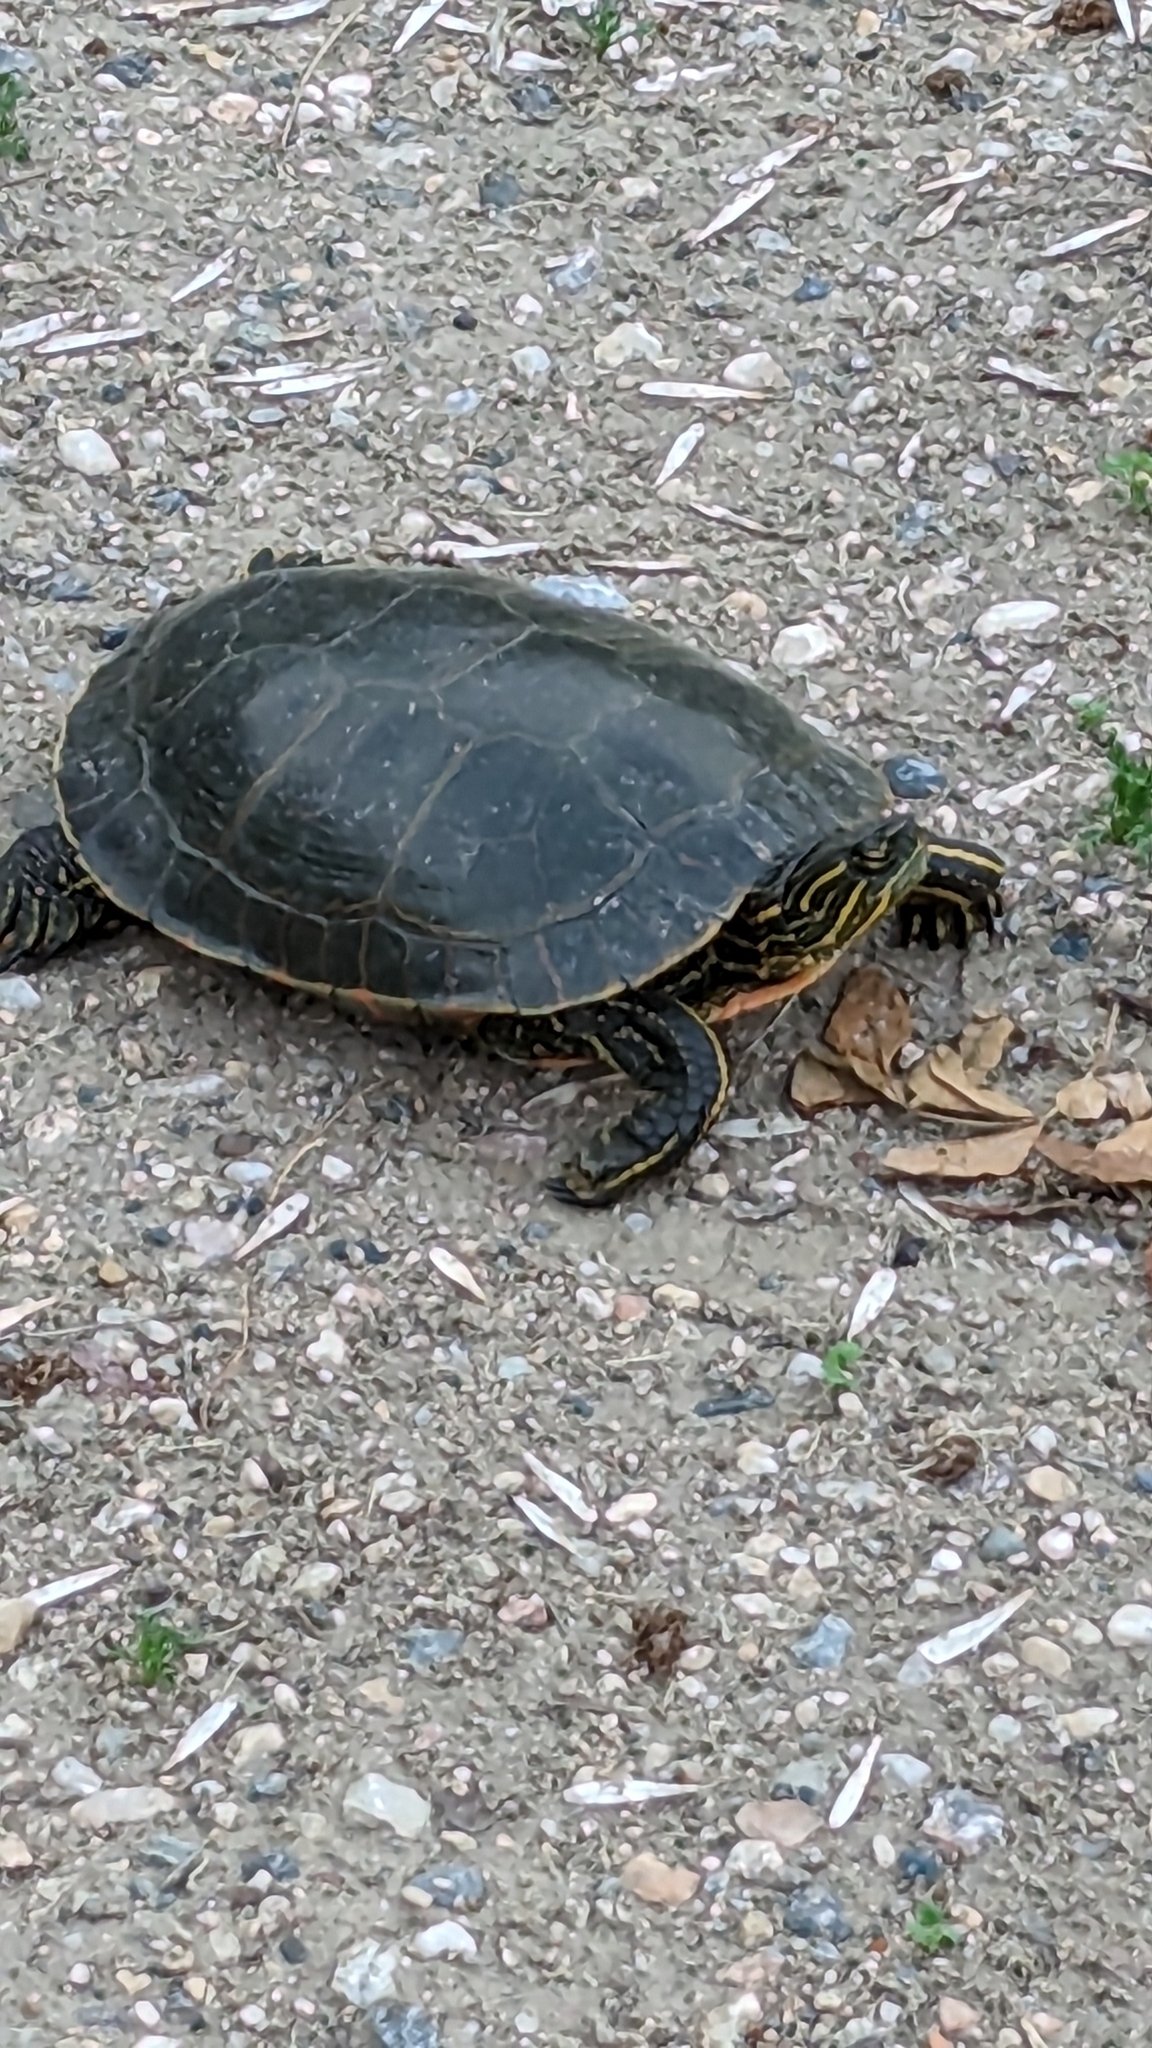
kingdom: Animalia
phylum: Chordata
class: Testudines
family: Emydidae
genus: Chrysemys
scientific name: Chrysemys picta
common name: Painted turtle
